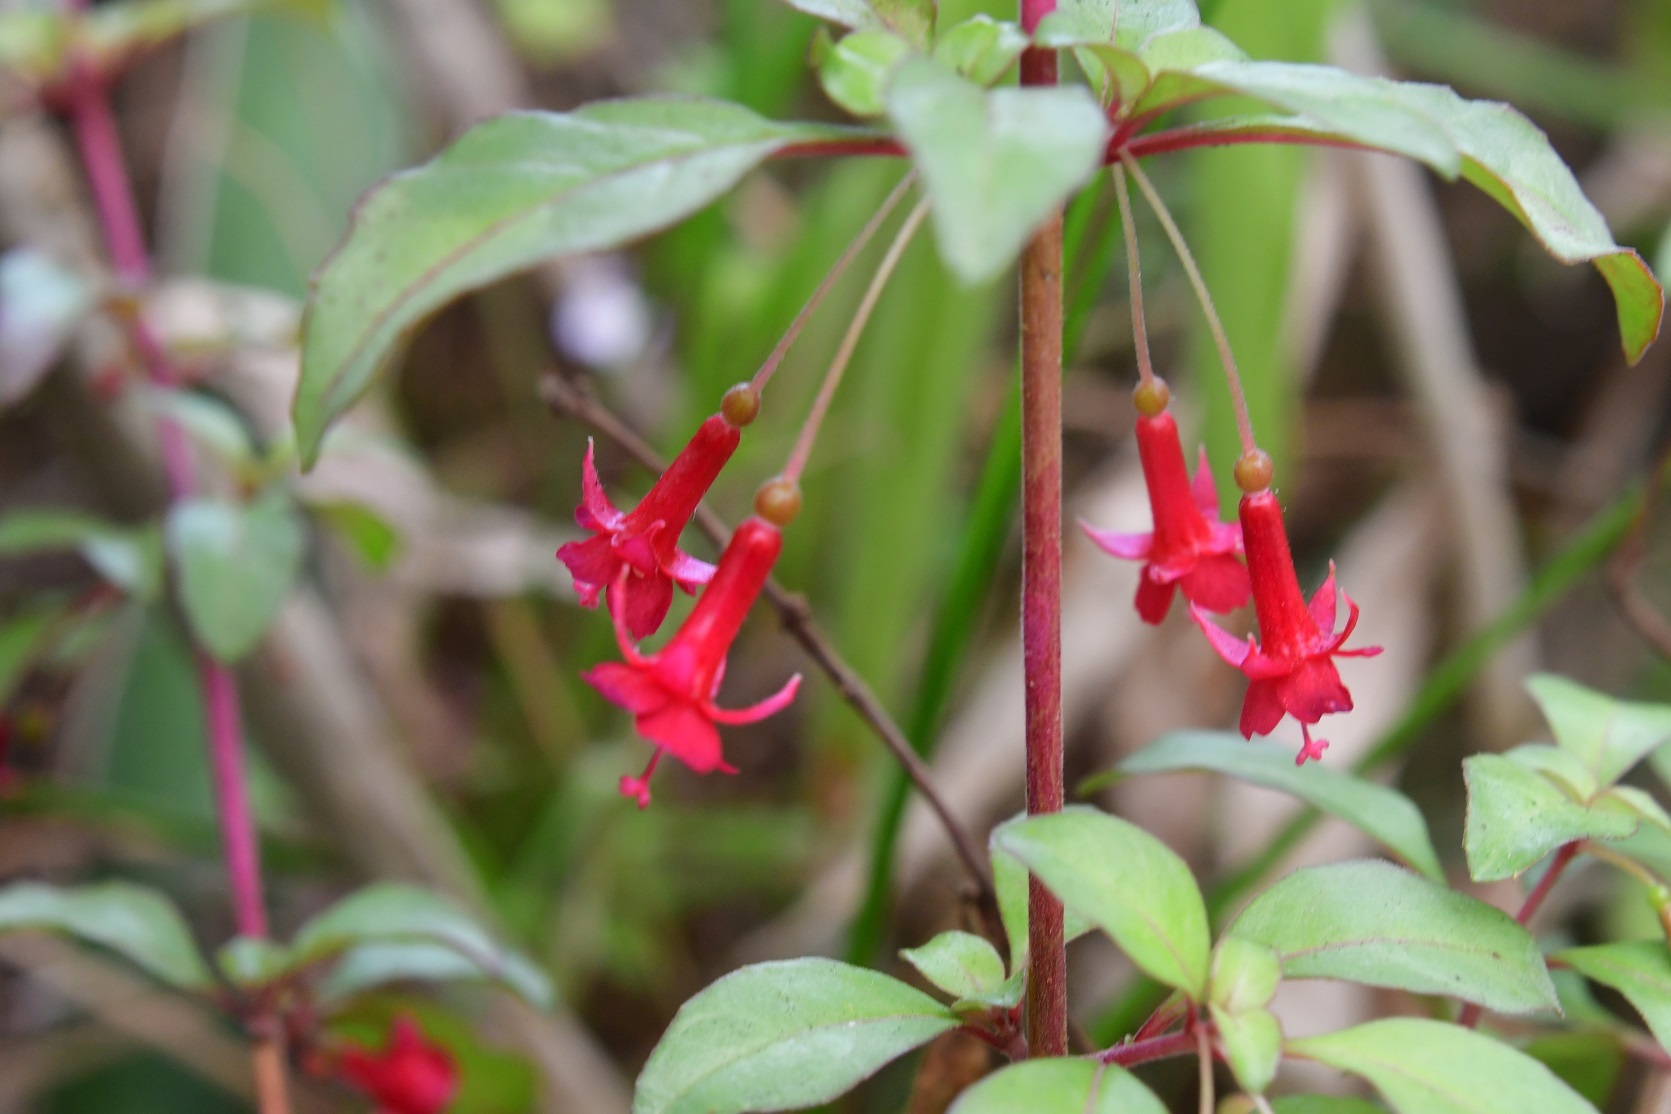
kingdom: Plantae
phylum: Tracheophyta
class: Magnoliopsida
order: Myrtales
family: Onagraceae
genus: Fuchsia
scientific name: Fuchsia thymifolia
